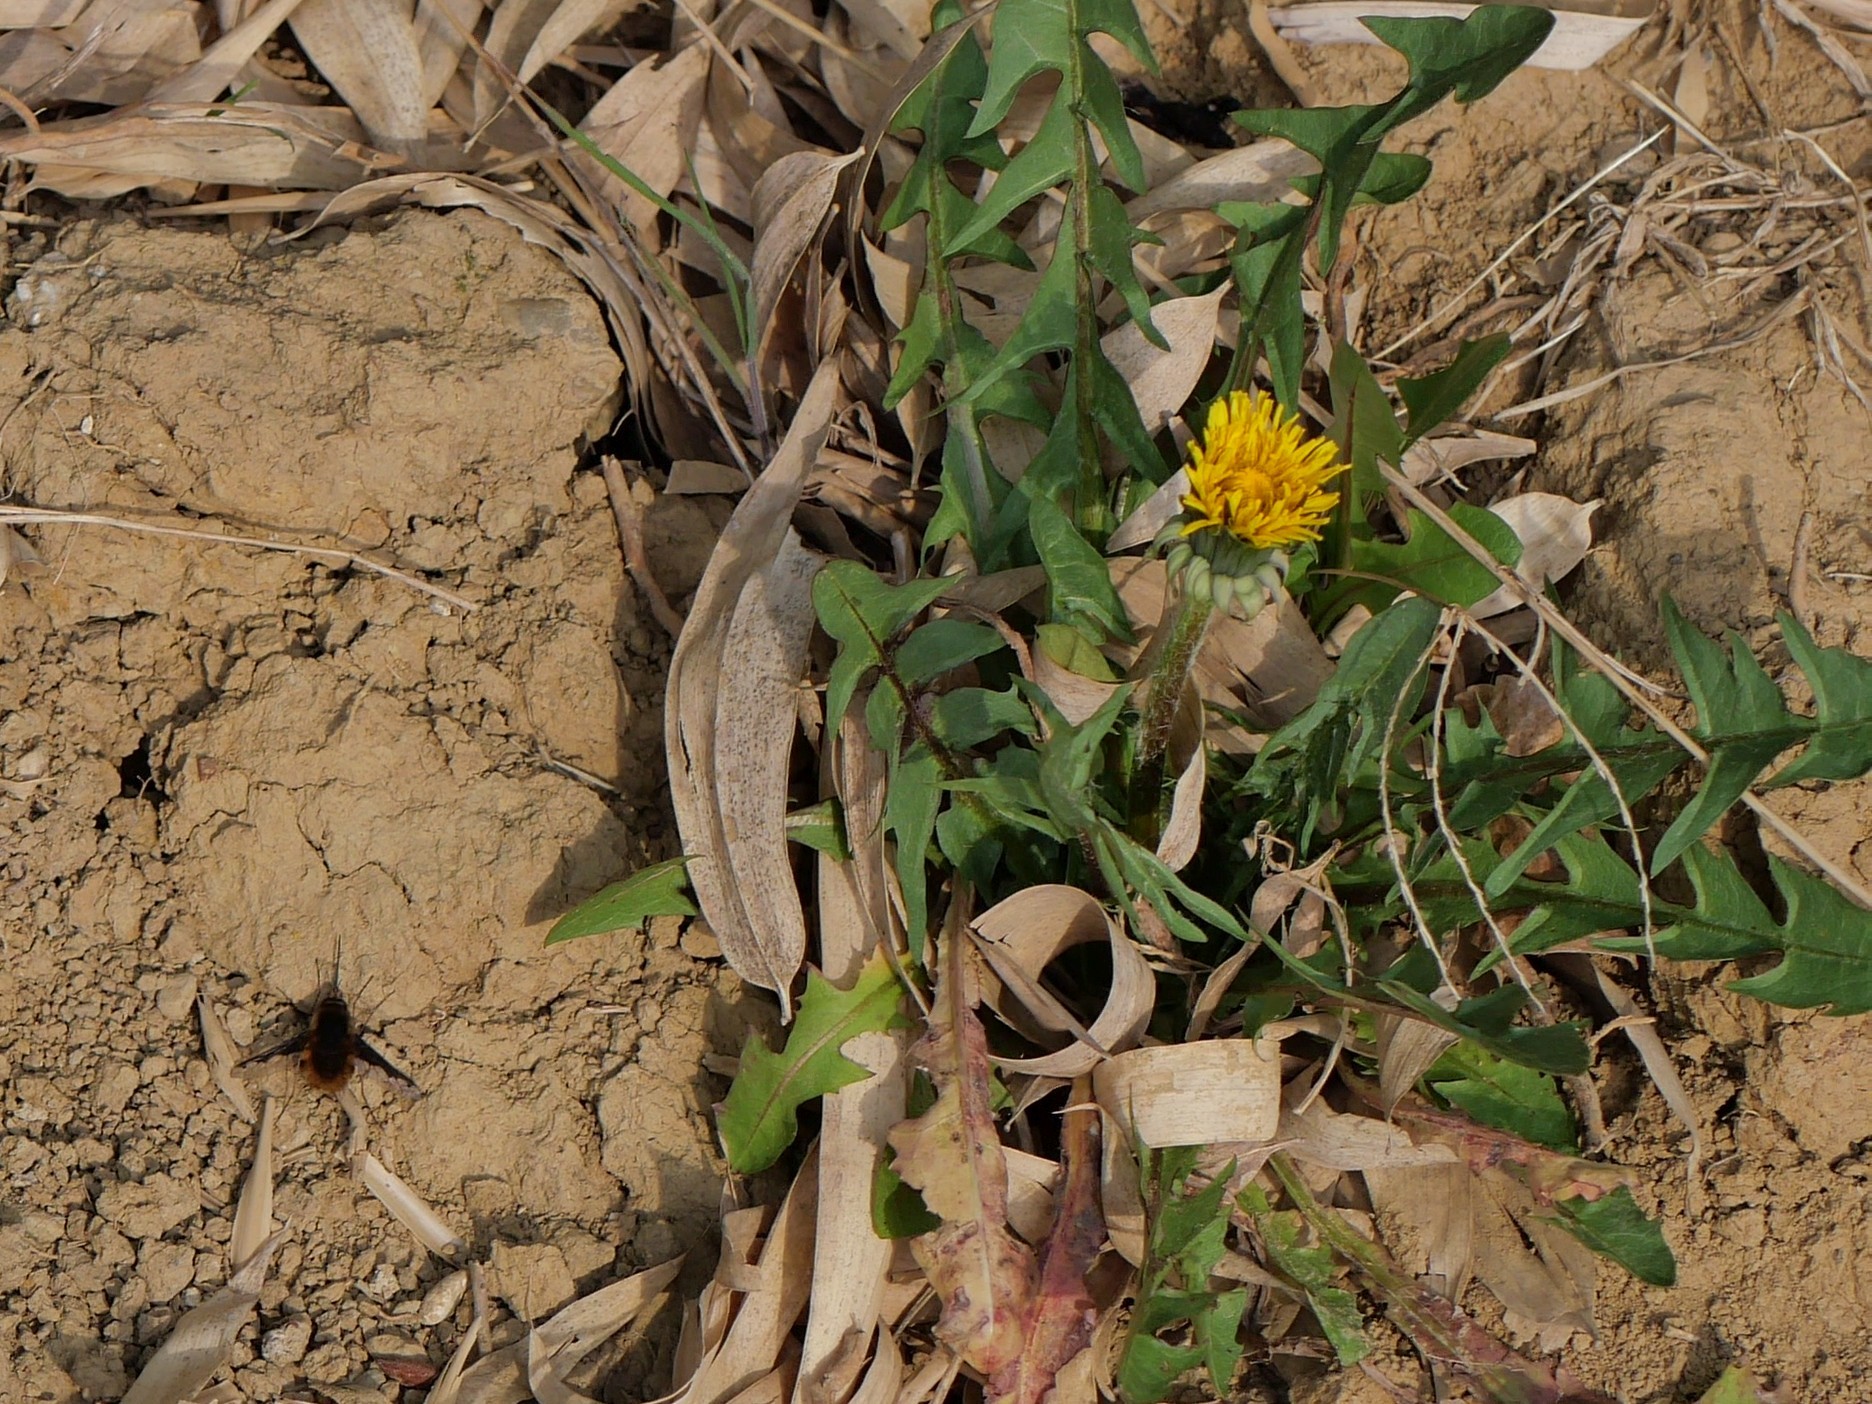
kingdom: Animalia
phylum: Arthropoda
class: Insecta
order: Diptera
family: Bombyliidae
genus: Bombylius
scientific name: Bombylius major
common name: Bee fly
